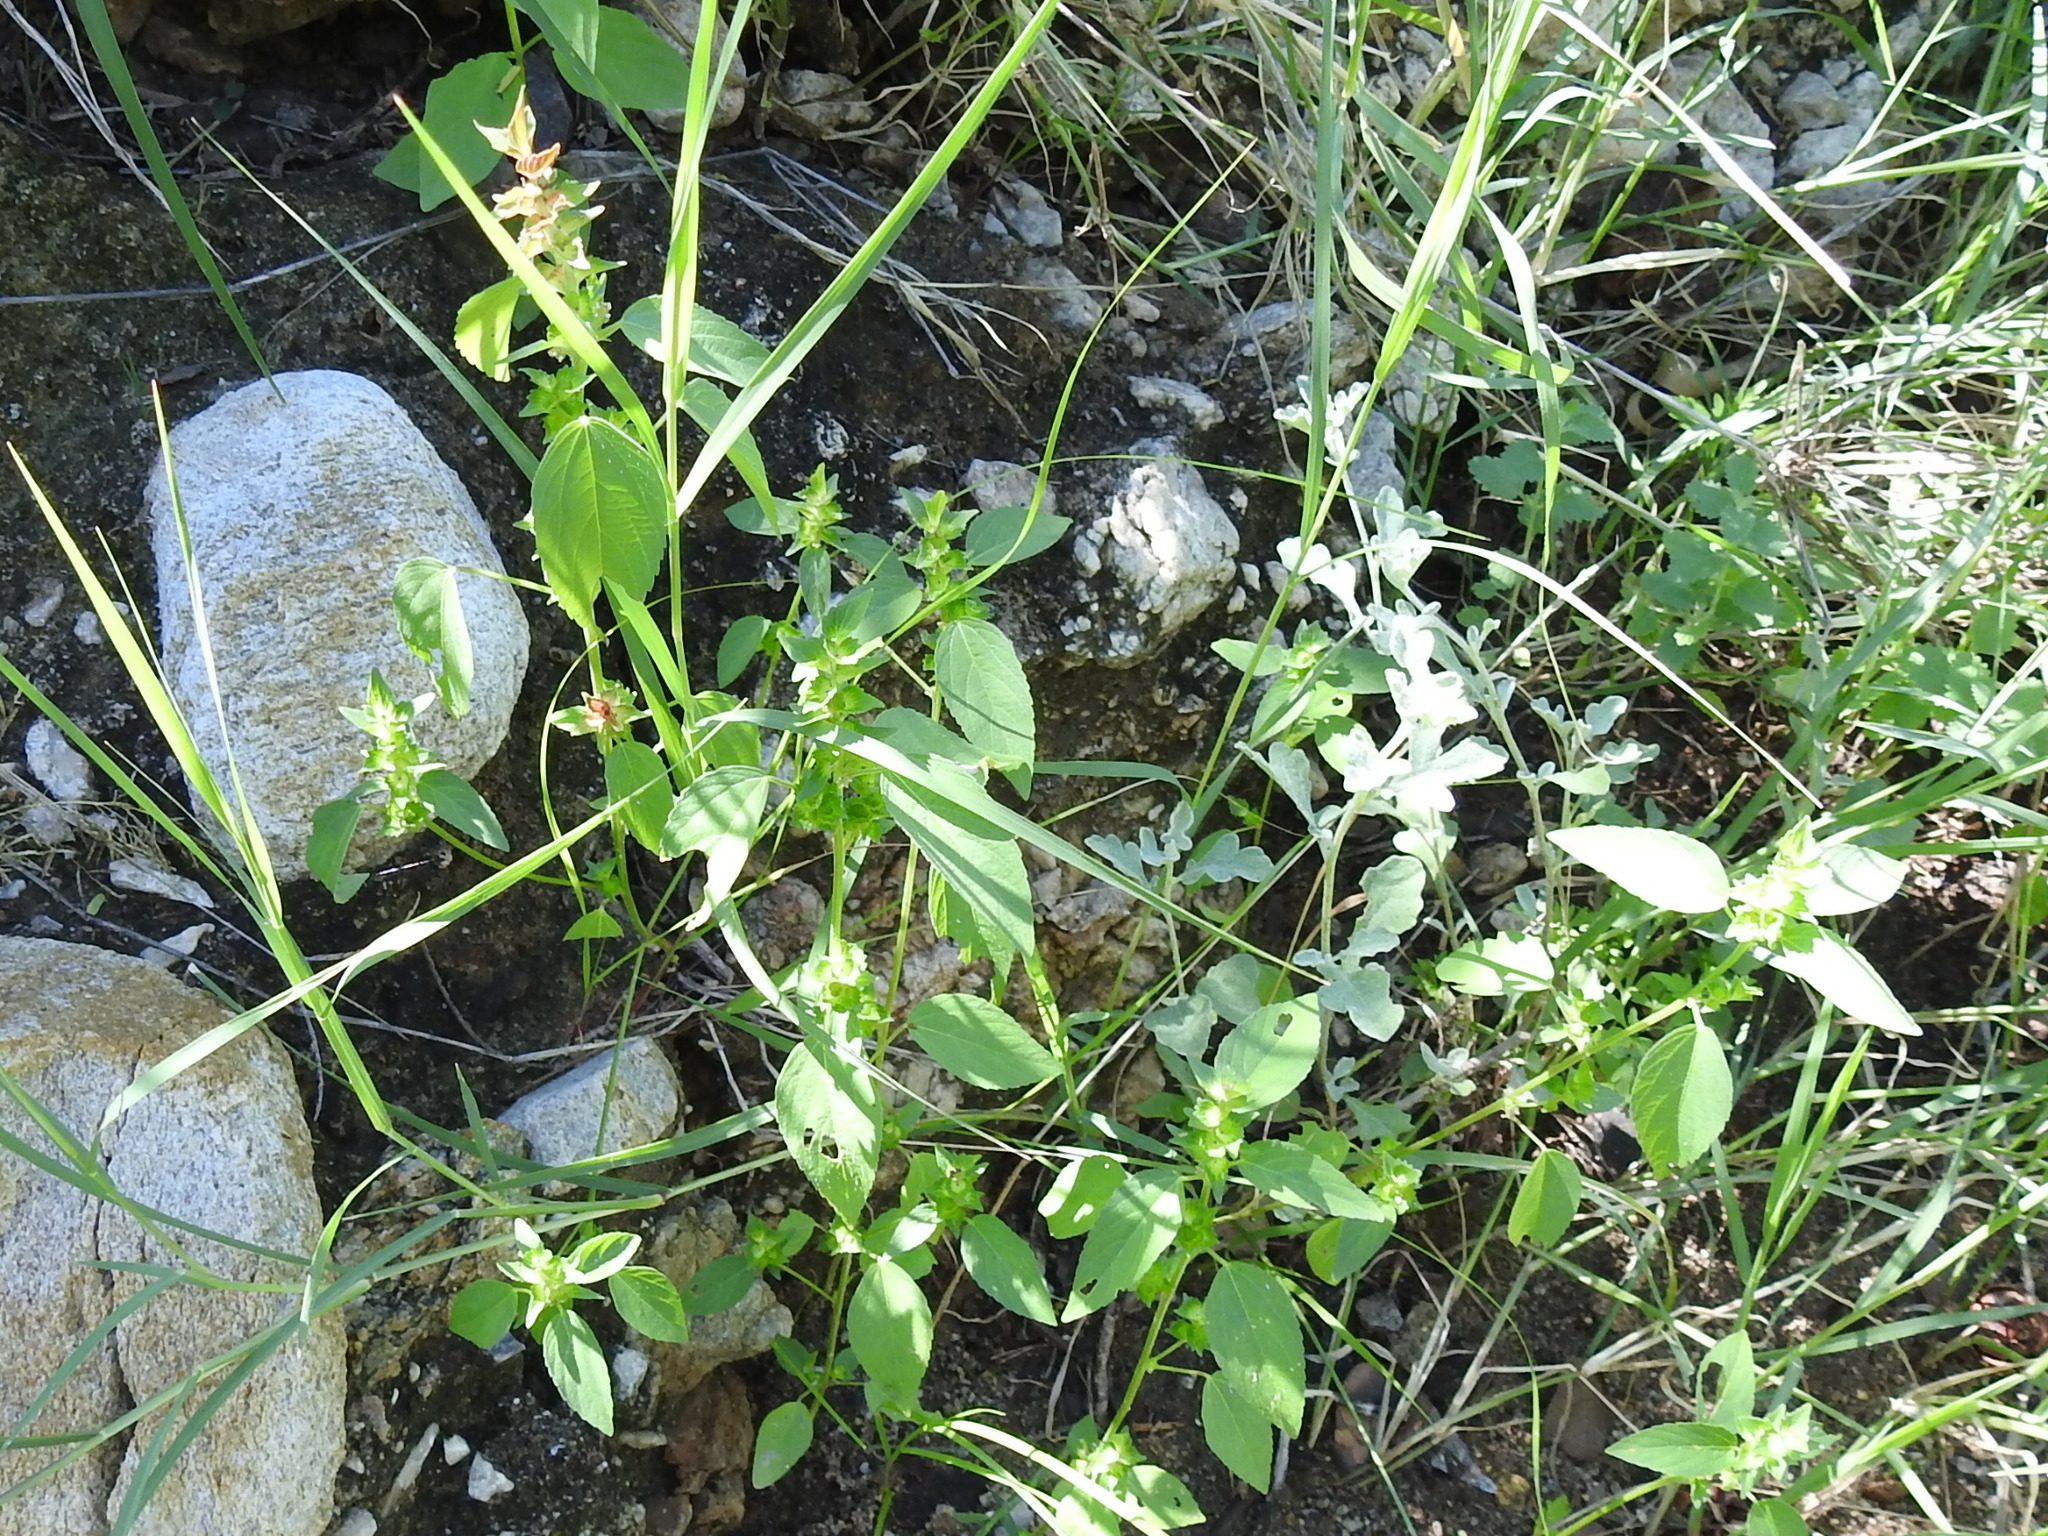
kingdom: Plantae
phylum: Tracheophyta
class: Magnoliopsida
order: Malpighiales
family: Euphorbiaceae
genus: Acalypha
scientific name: Acalypha neomexicana
